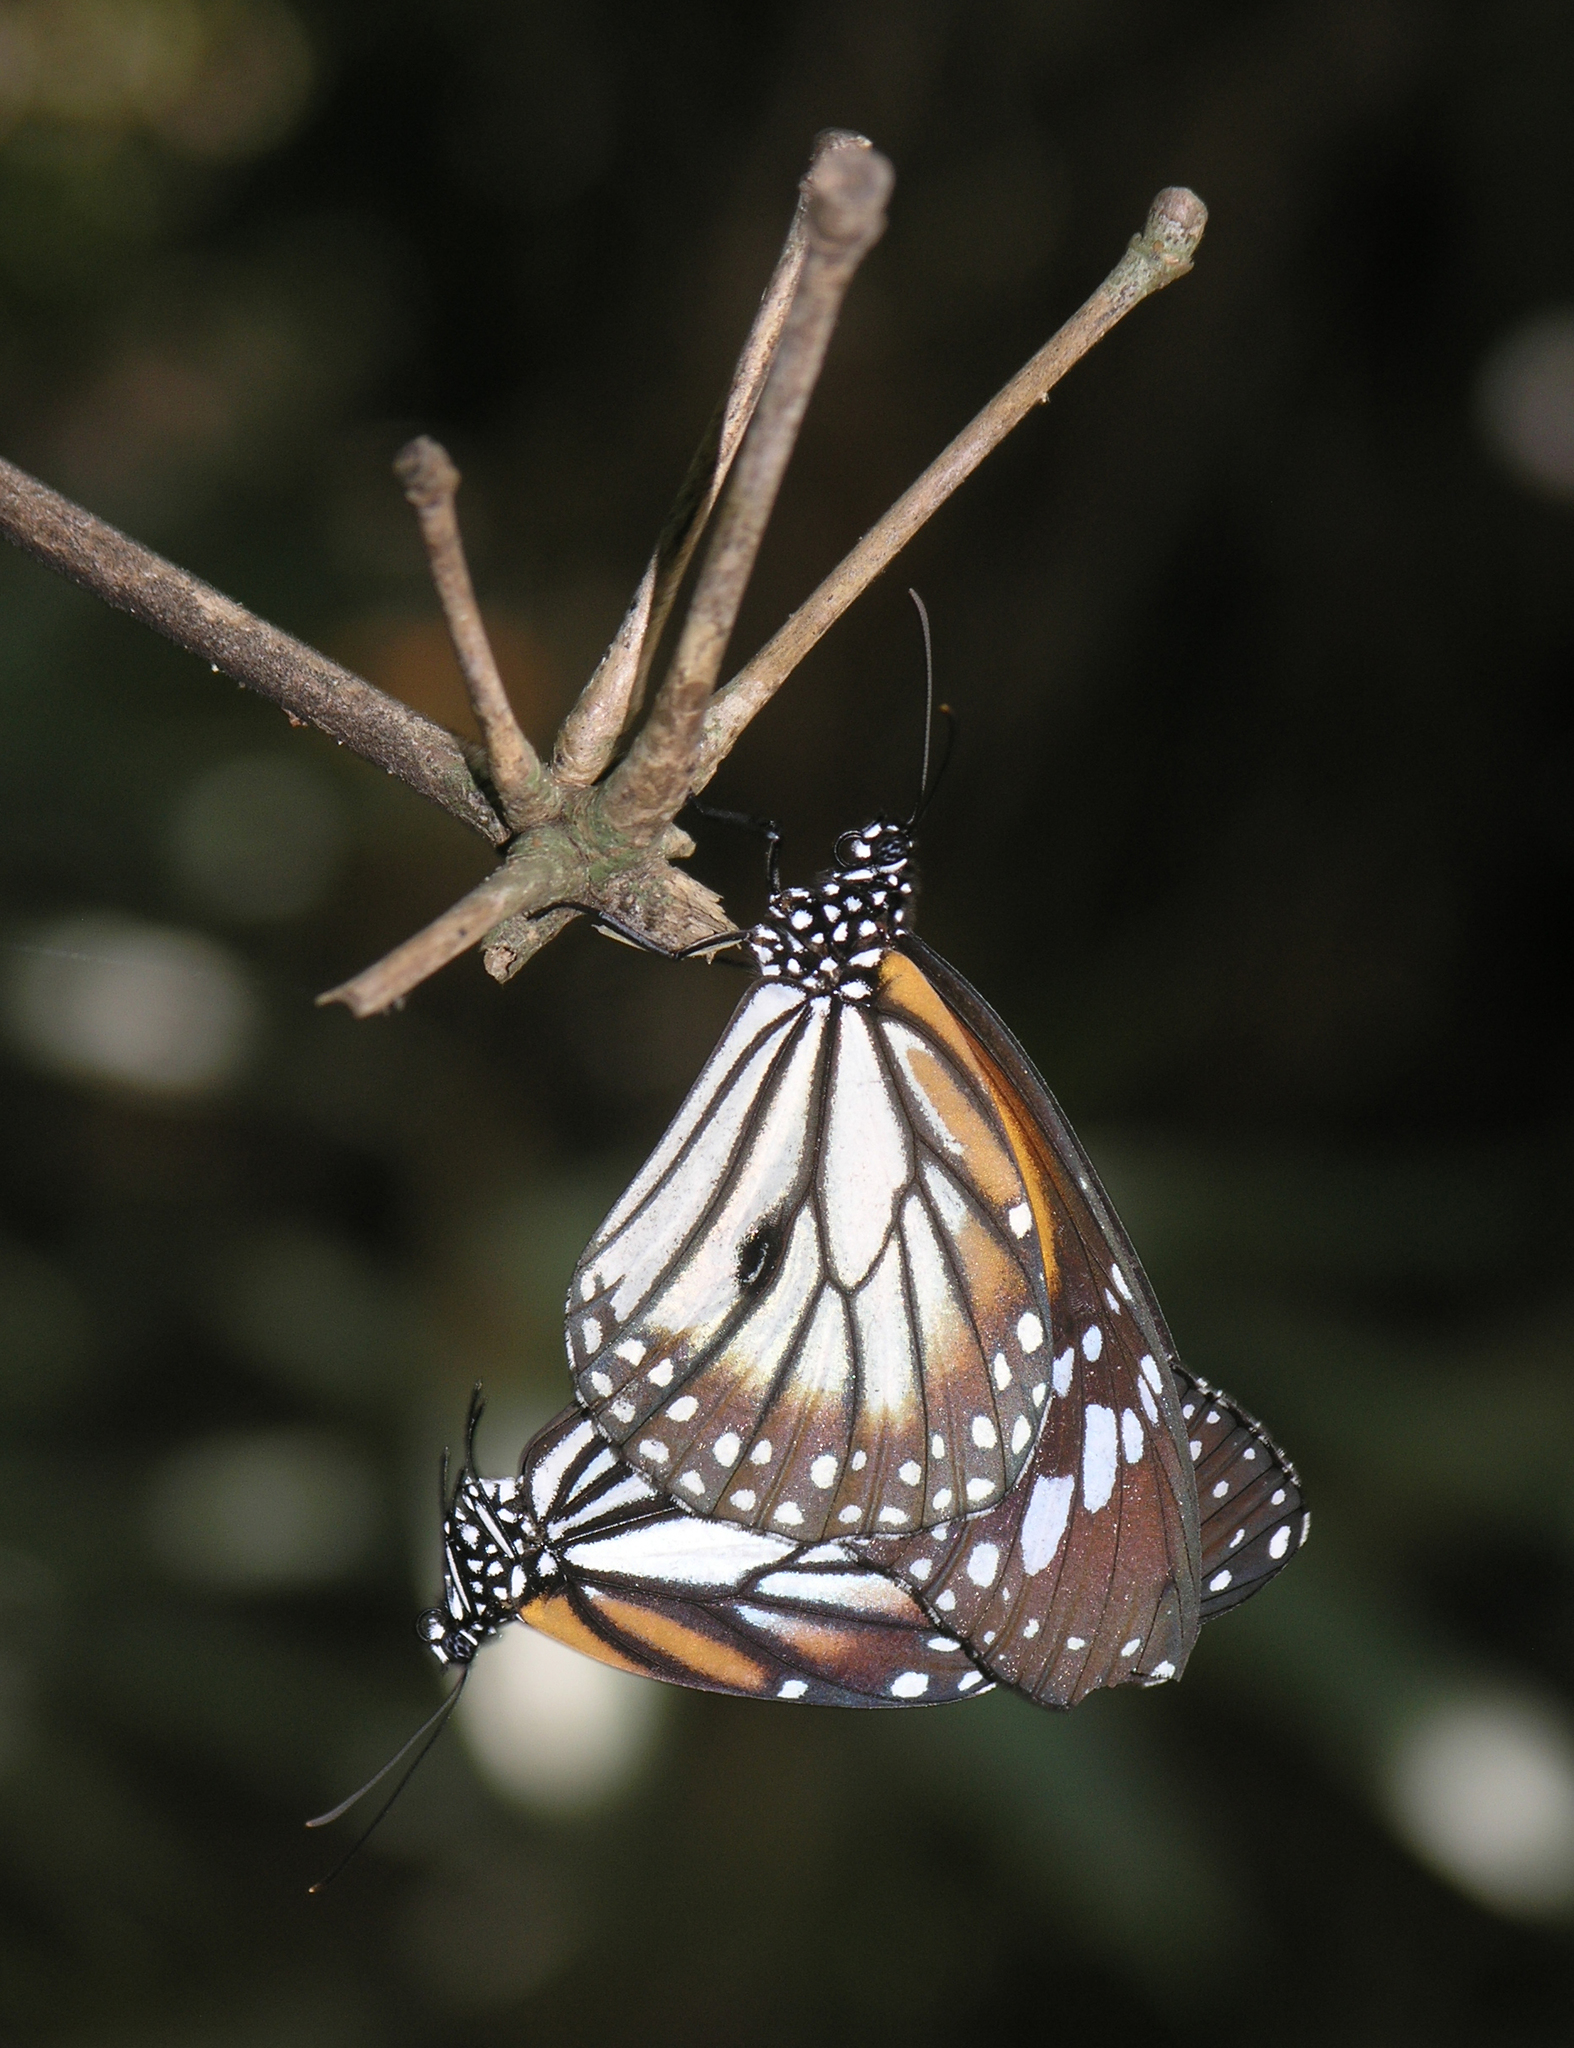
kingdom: Animalia
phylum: Arthropoda
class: Insecta
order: Lepidoptera
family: Nymphalidae
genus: Danaus
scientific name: Danaus melanippus
